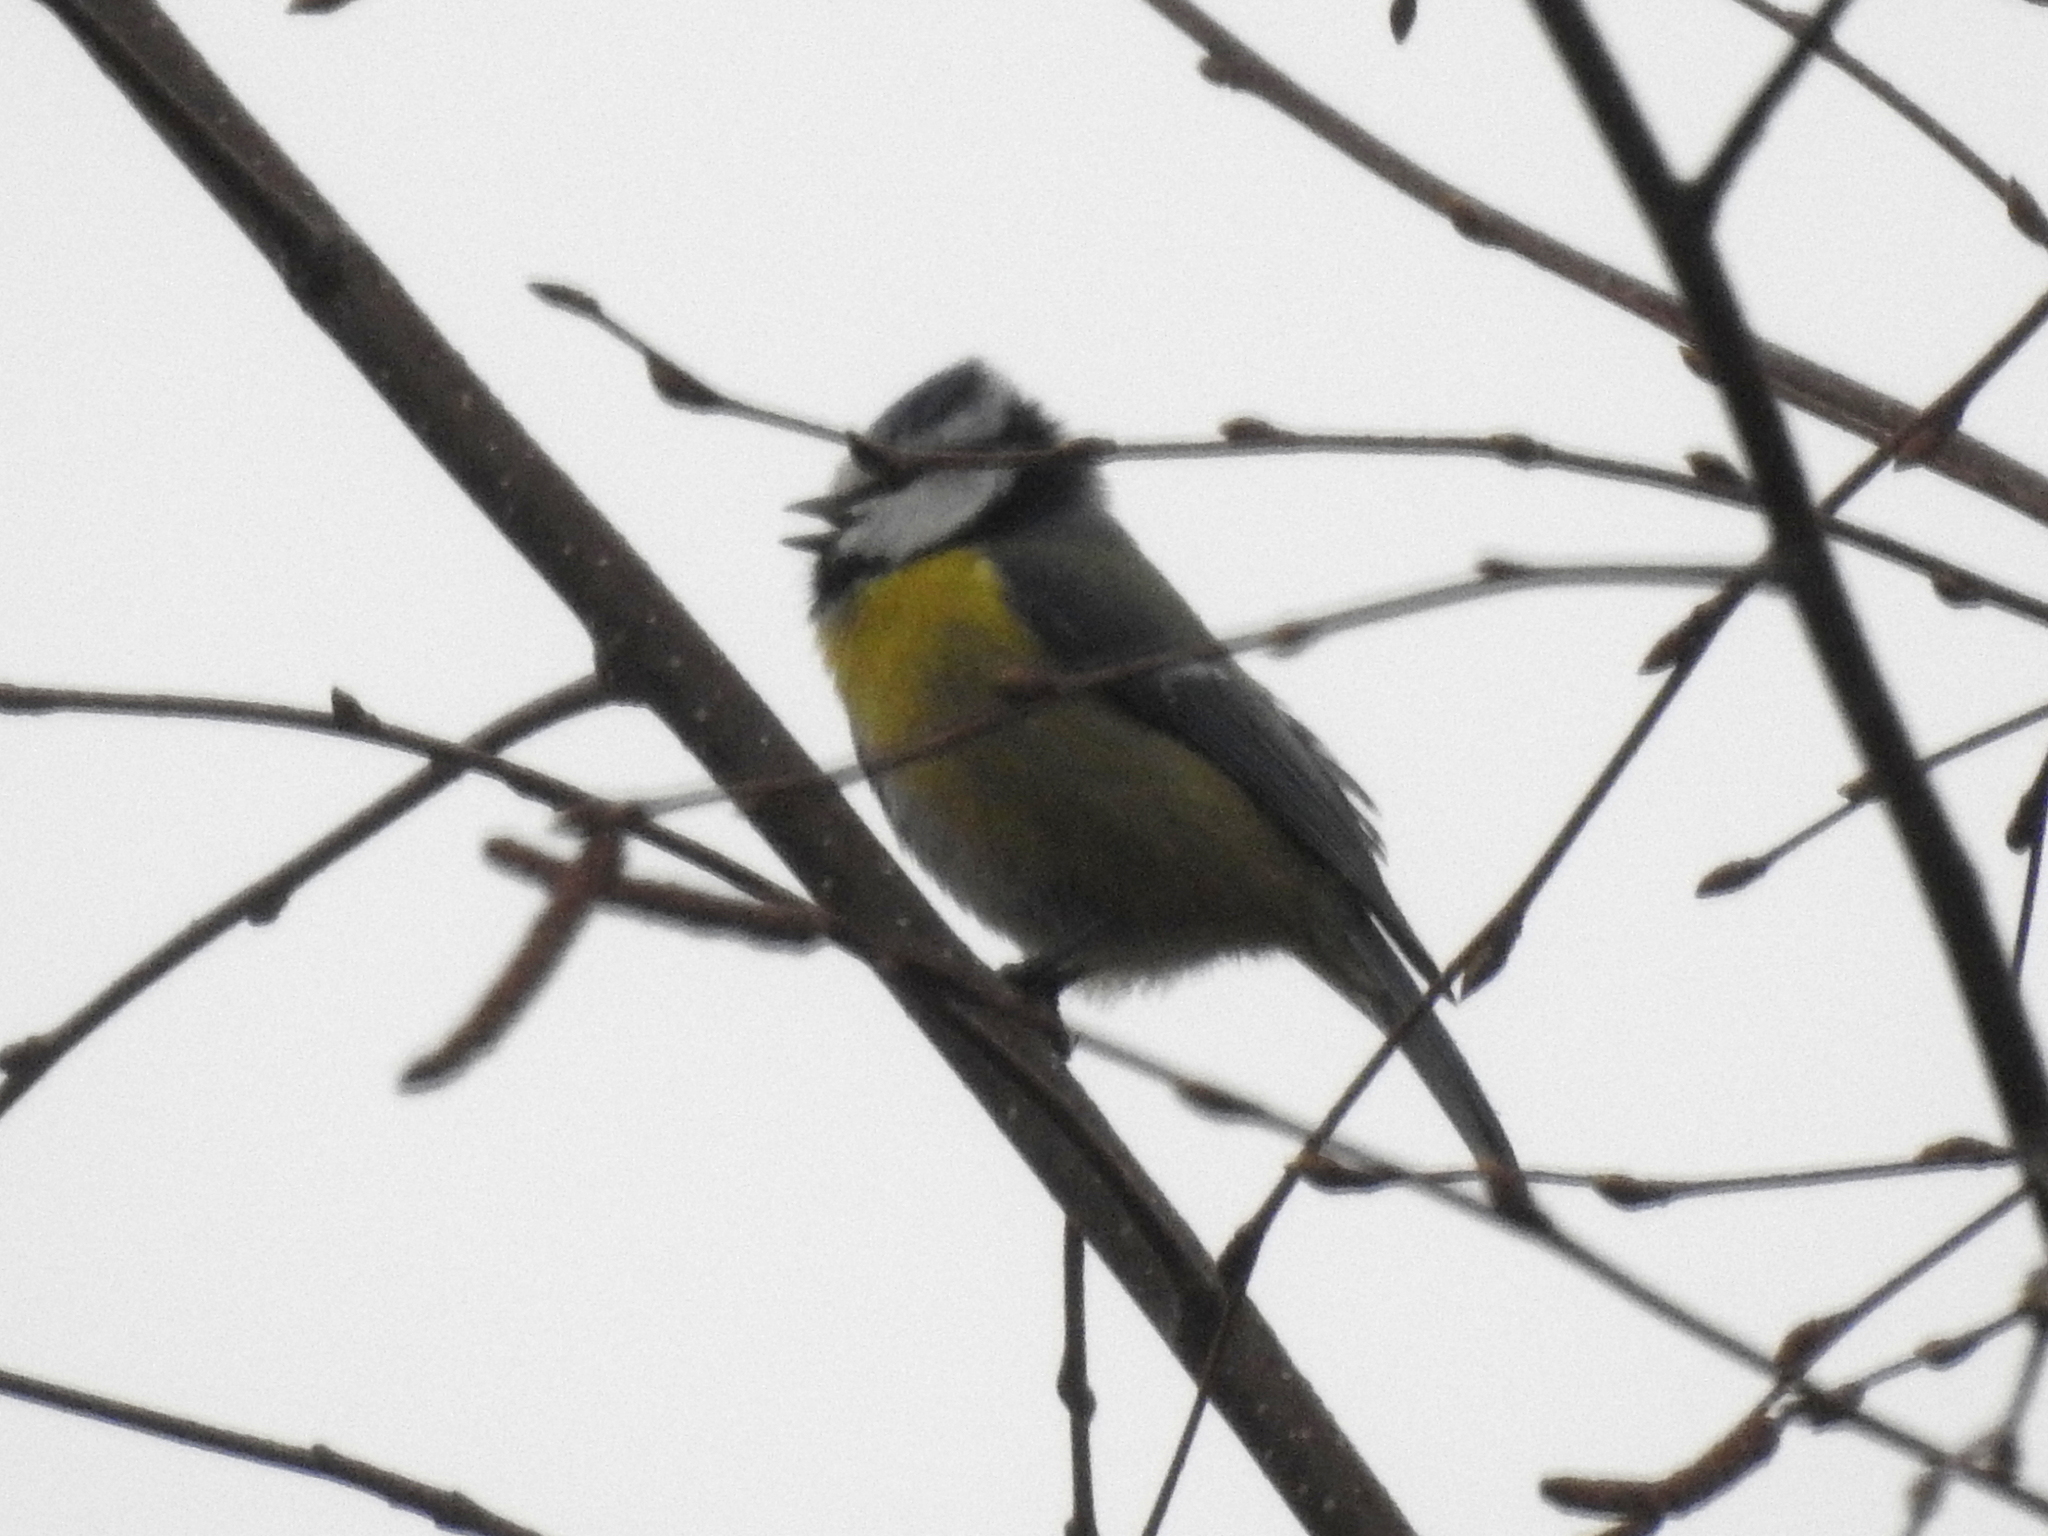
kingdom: Animalia
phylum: Chordata
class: Aves
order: Passeriformes
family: Paridae
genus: Cyanistes
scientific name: Cyanistes caeruleus
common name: Eurasian blue tit
